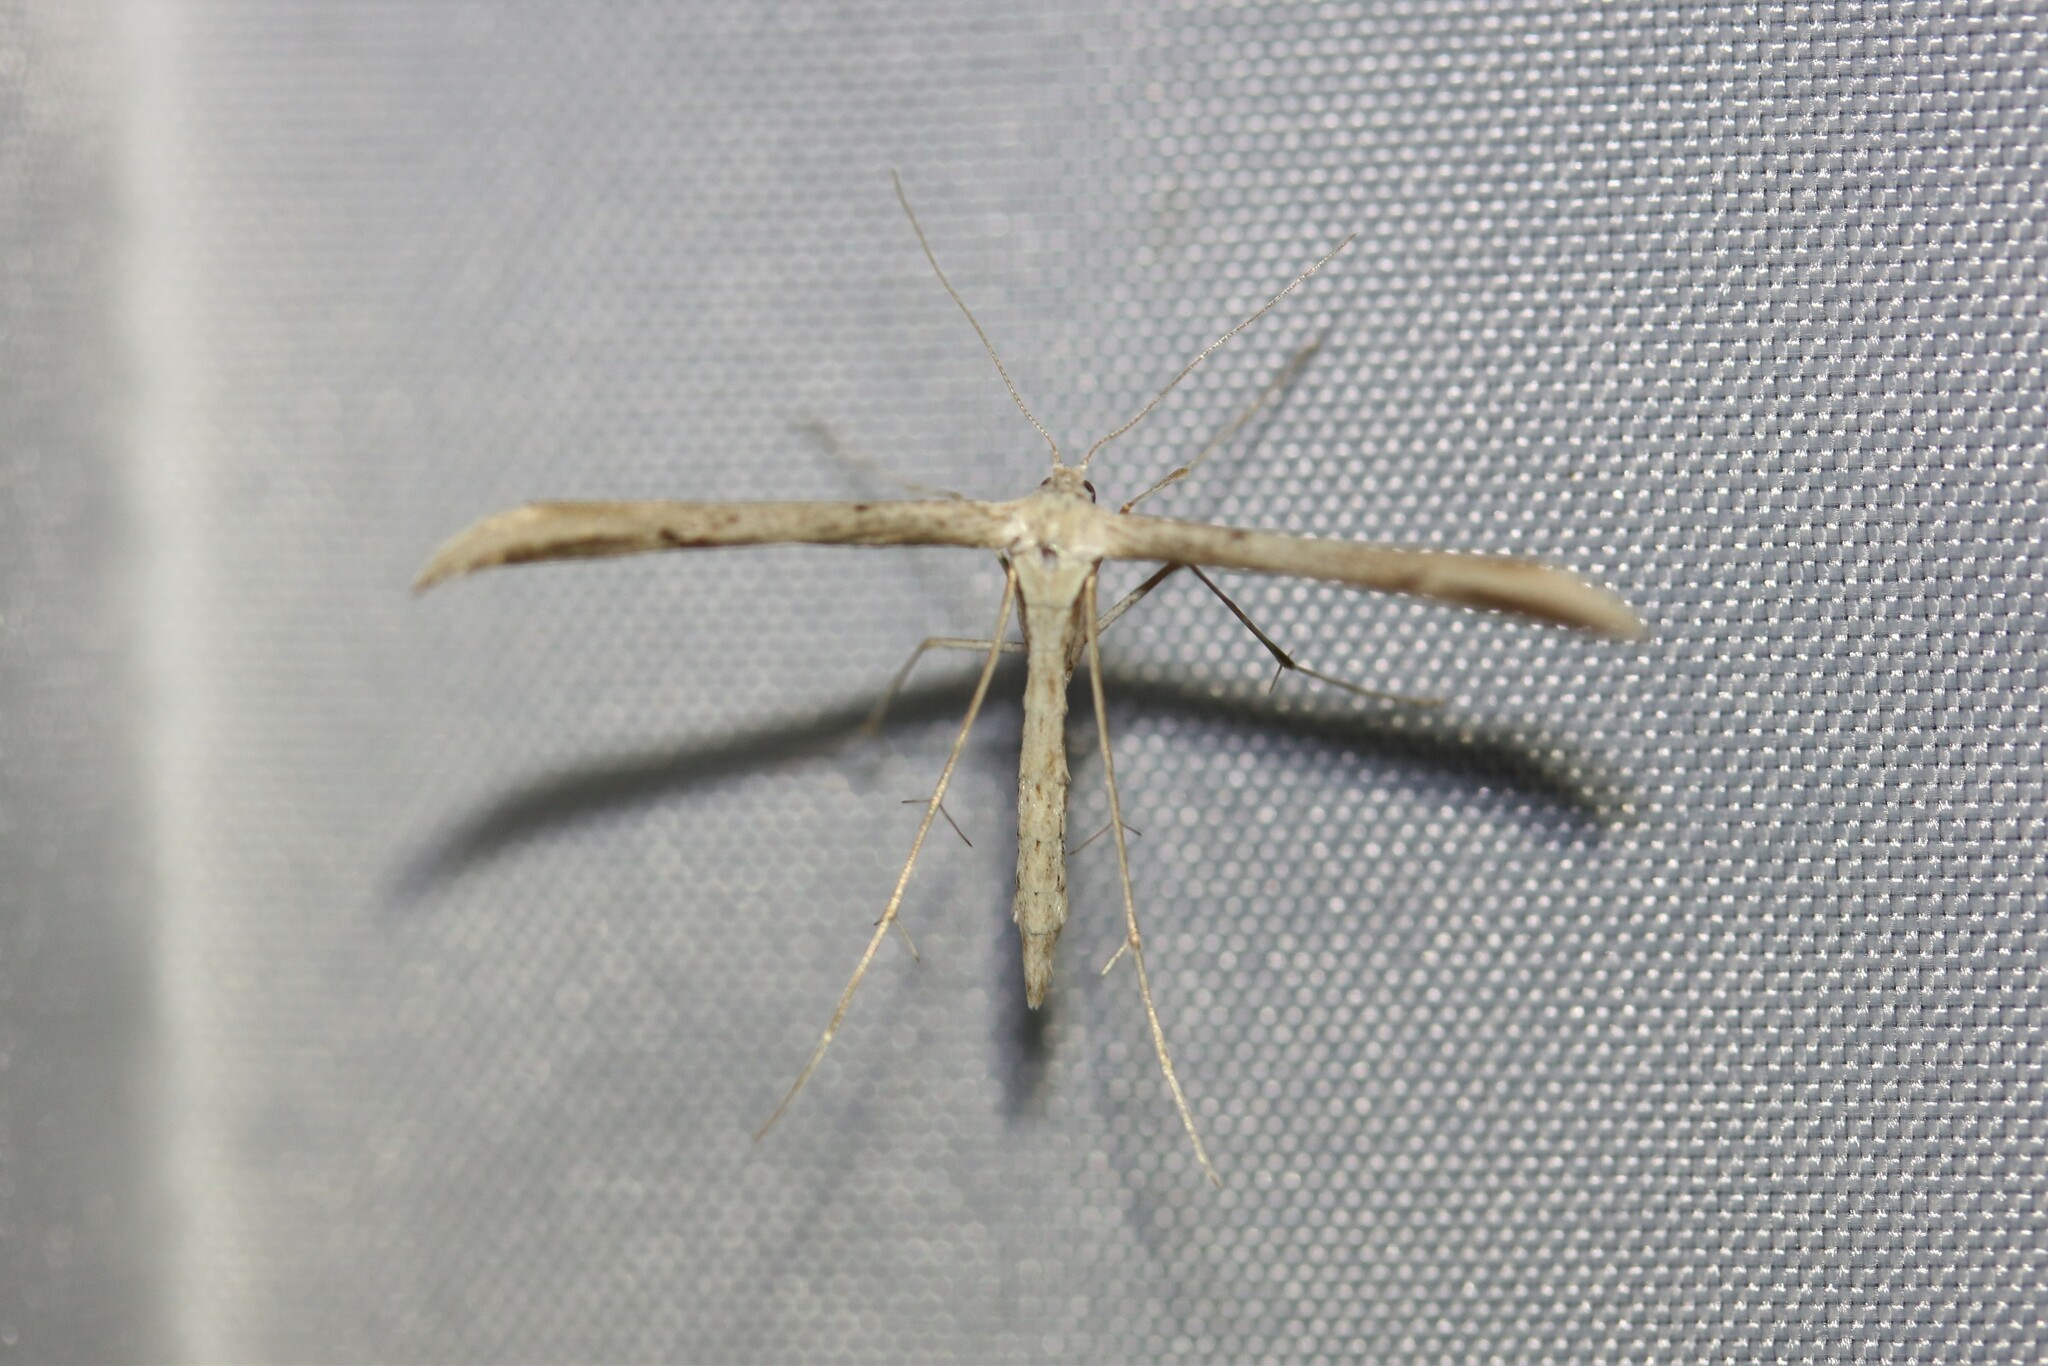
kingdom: Animalia
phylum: Arthropoda
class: Insecta
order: Lepidoptera
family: Pterophoridae
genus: Emmelina
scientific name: Emmelina monodactyla
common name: Common plume
